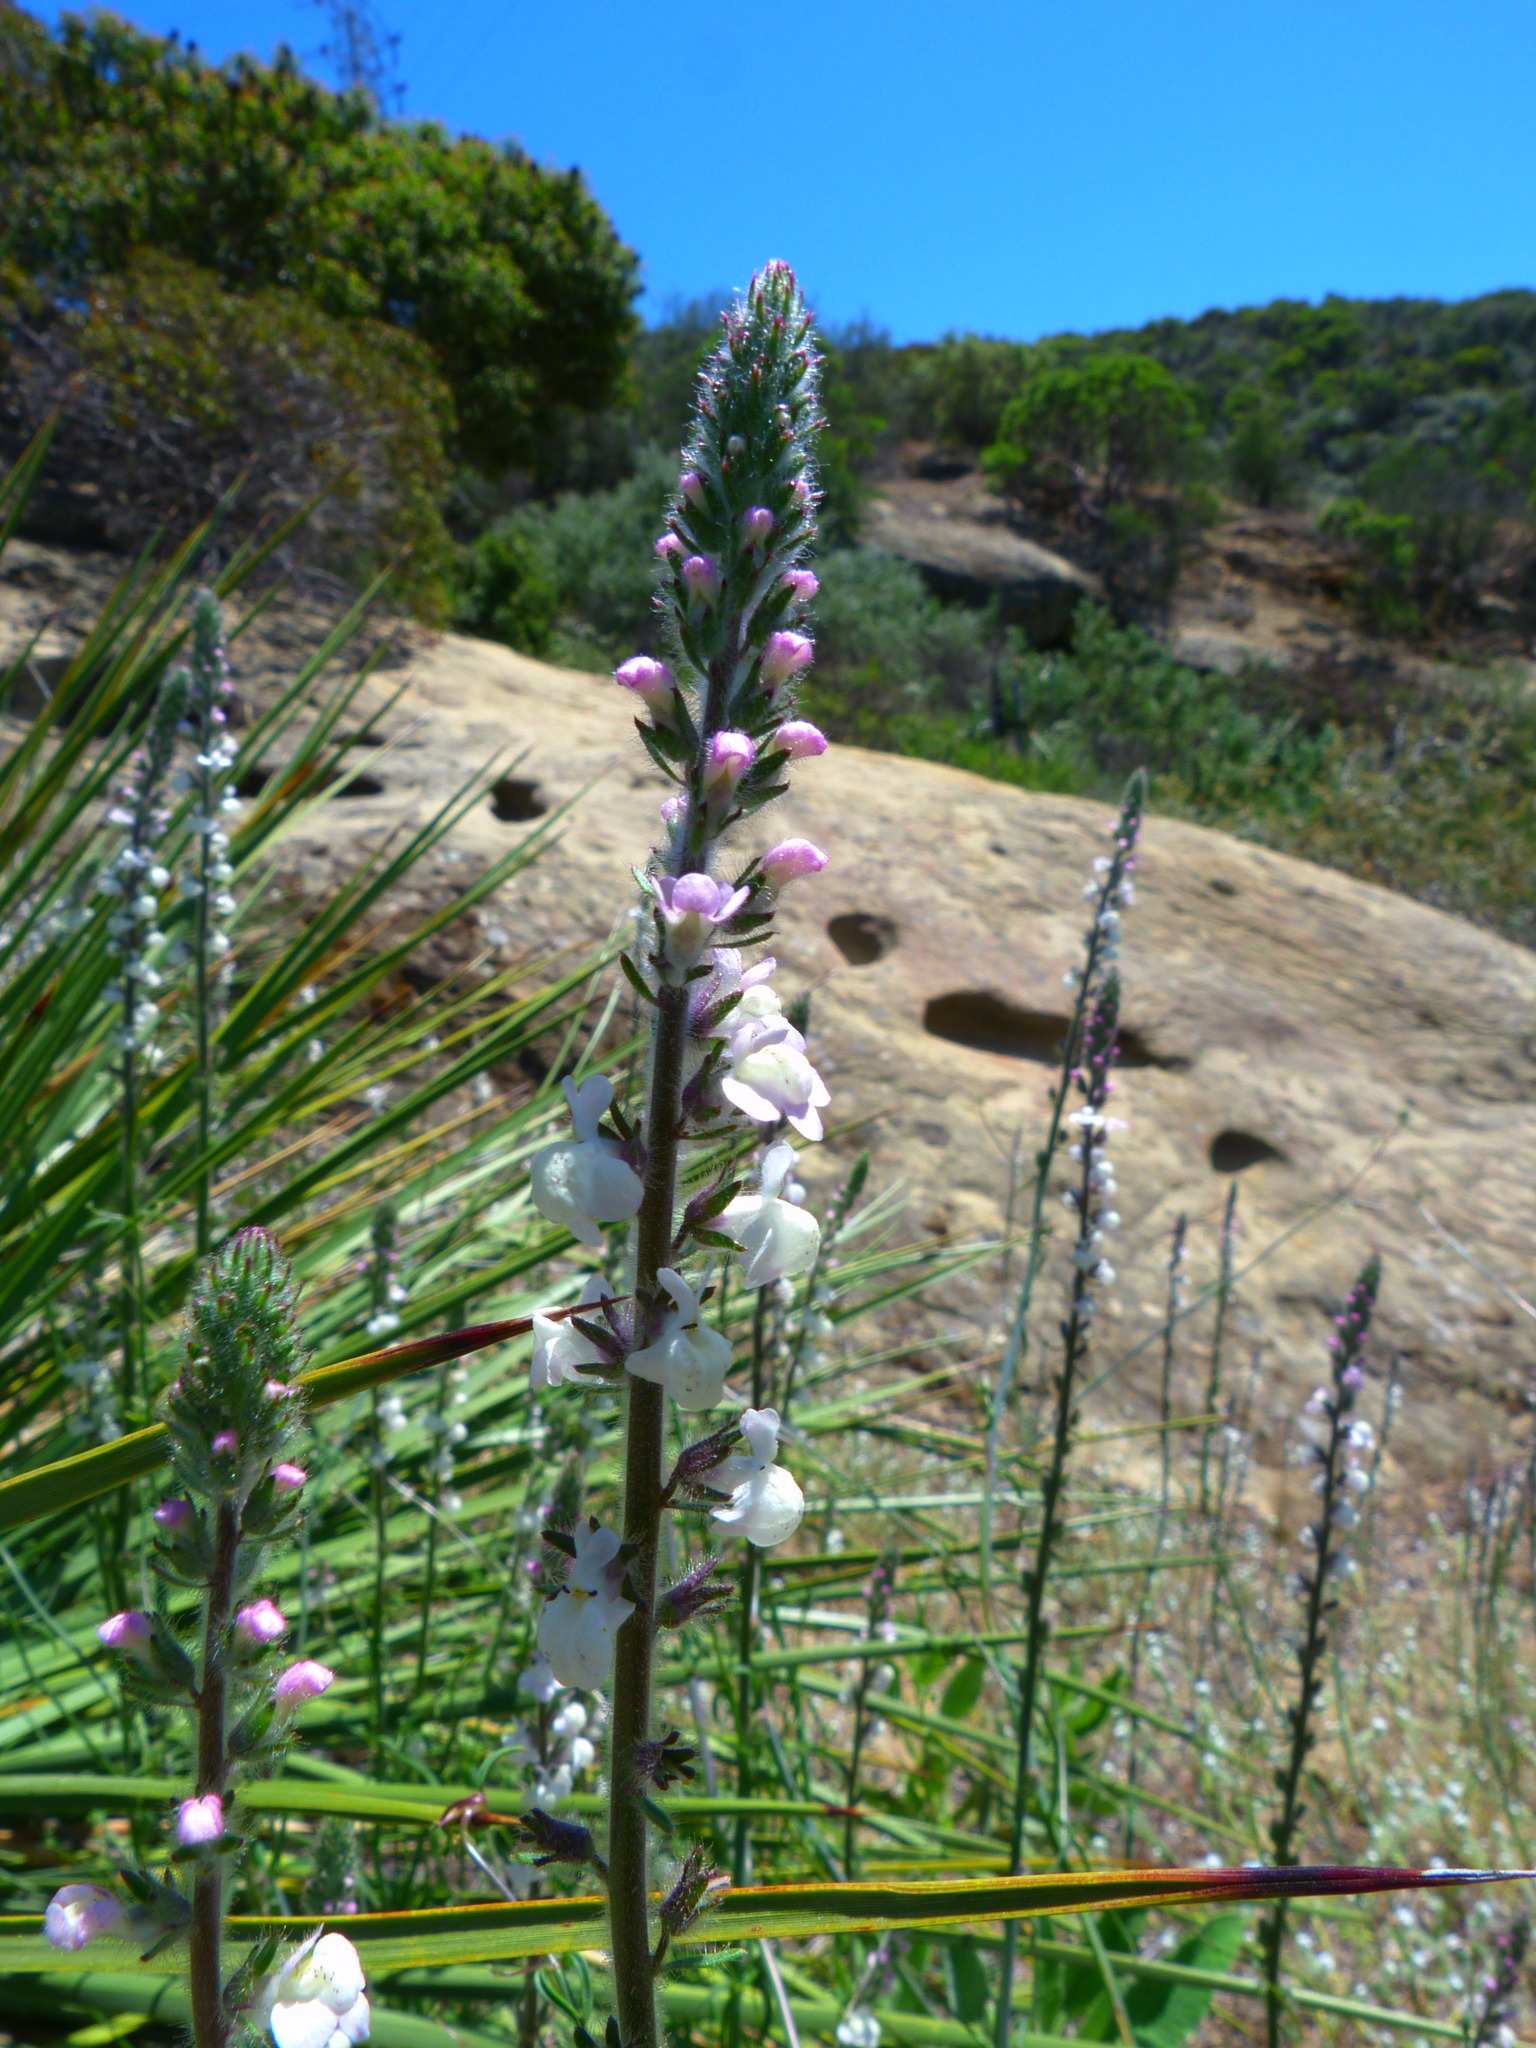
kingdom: Plantae
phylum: Tracheophyta
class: Magnoliopsida
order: Lamiales
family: Plantaginaceae
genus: Sairocarpus
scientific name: Sairocarpus coulterianus
